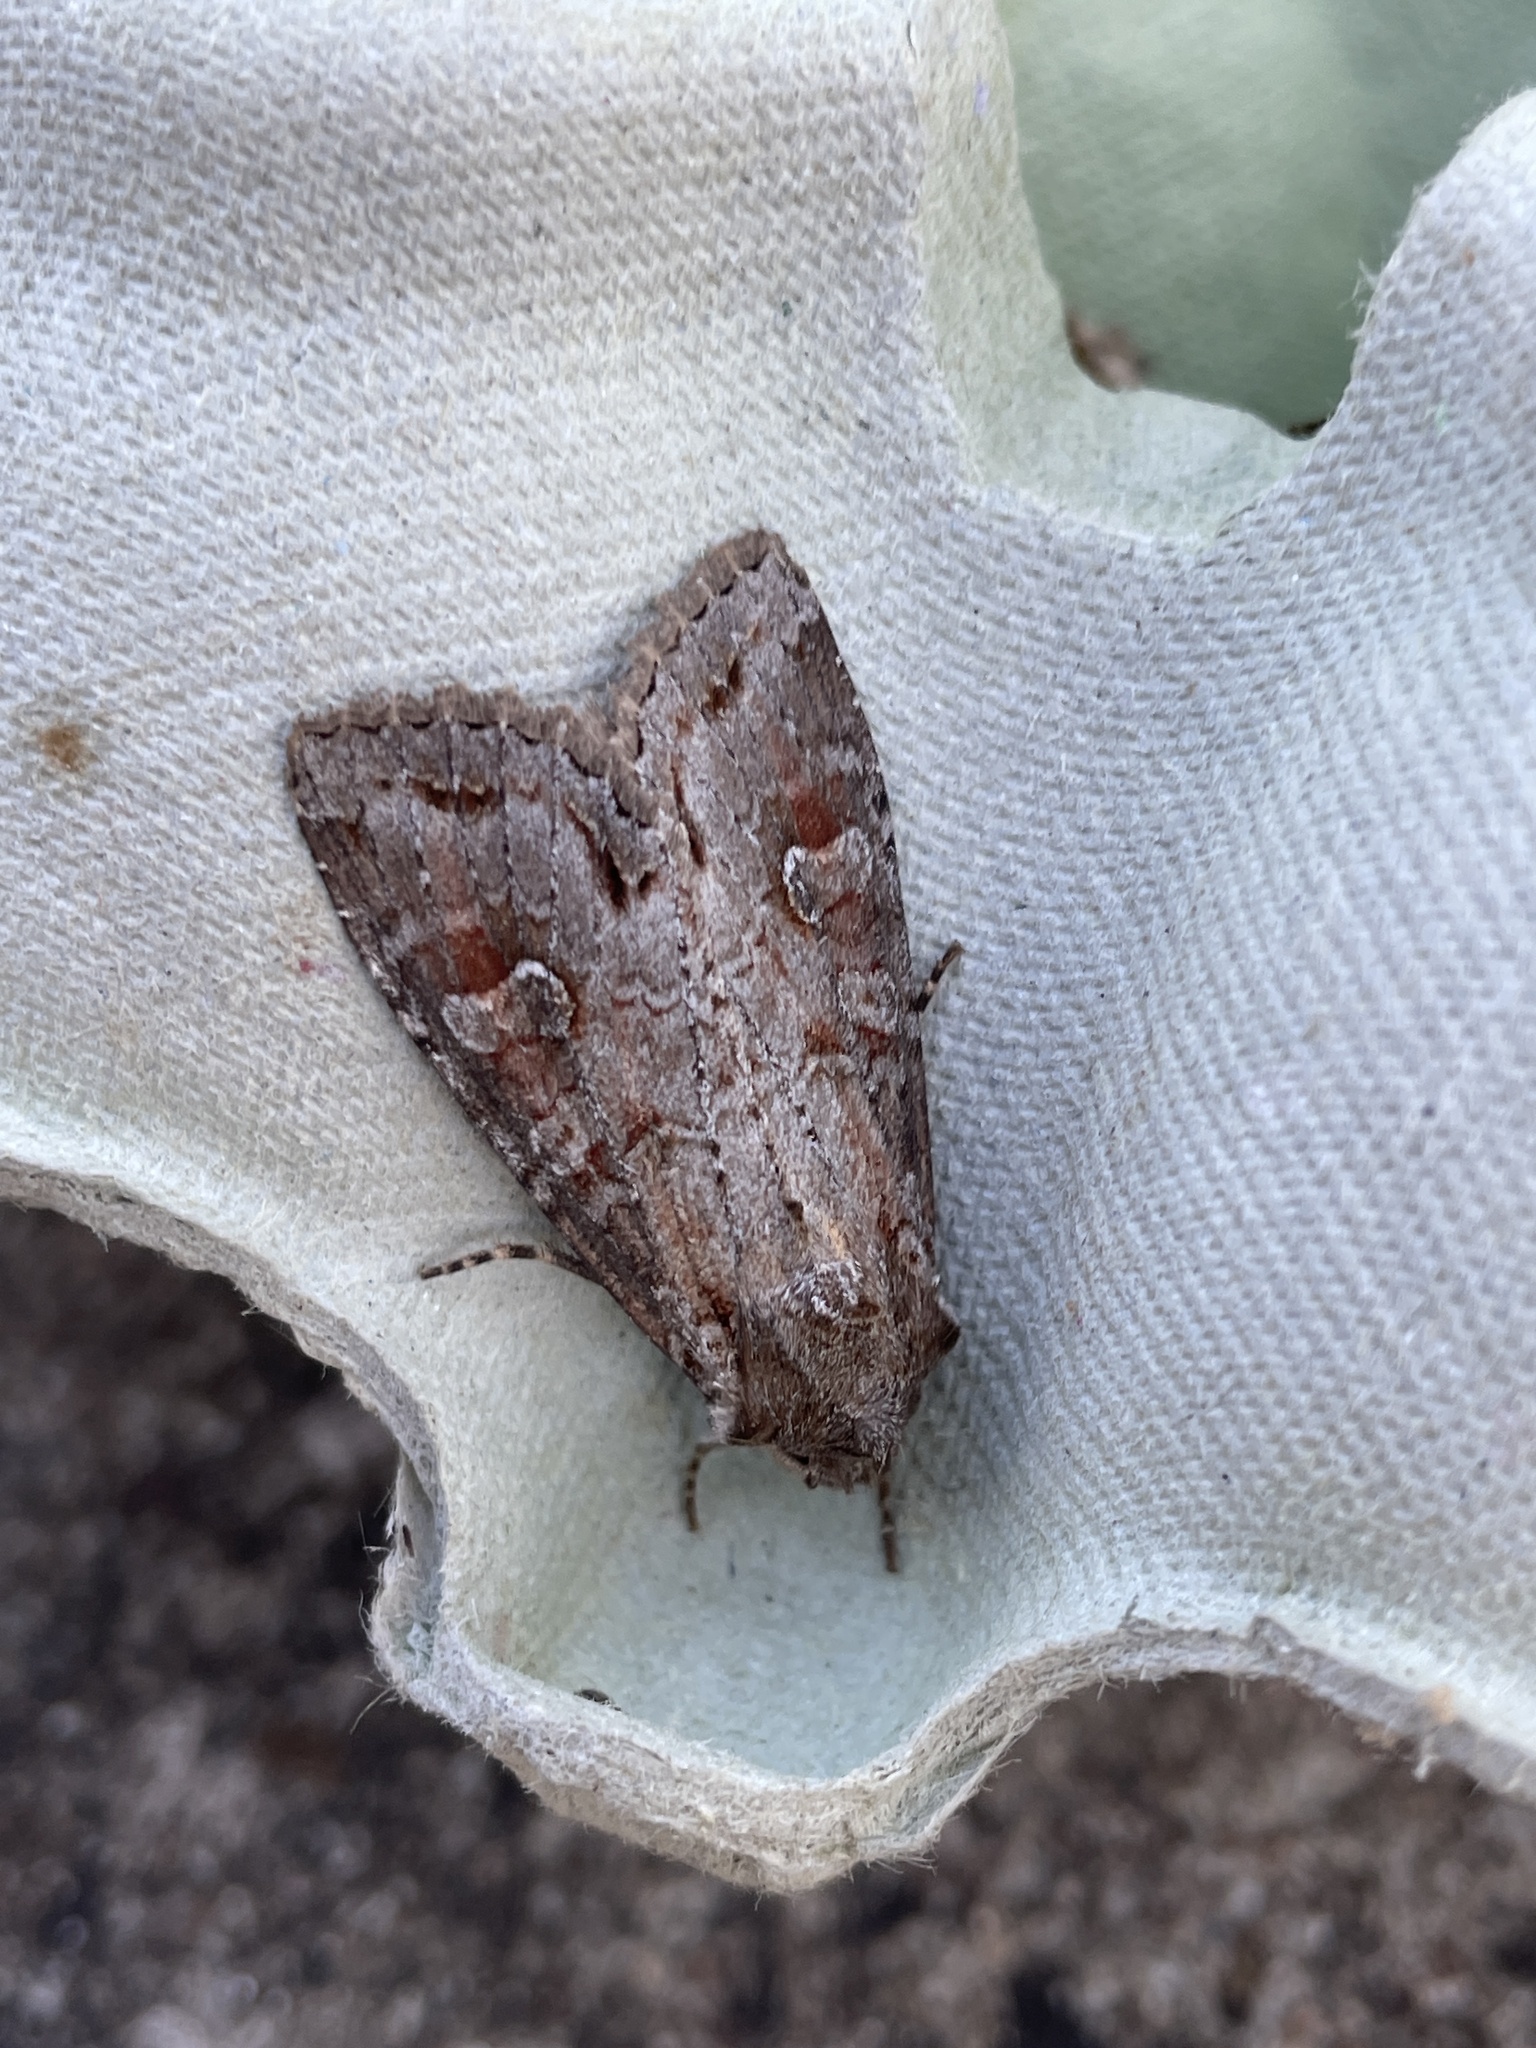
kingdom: Animalia
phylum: Arthropoda
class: Insecta
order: Lepidoptera
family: Noctuidae
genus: Polia
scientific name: Polia bombycina
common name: Pale shining brown
